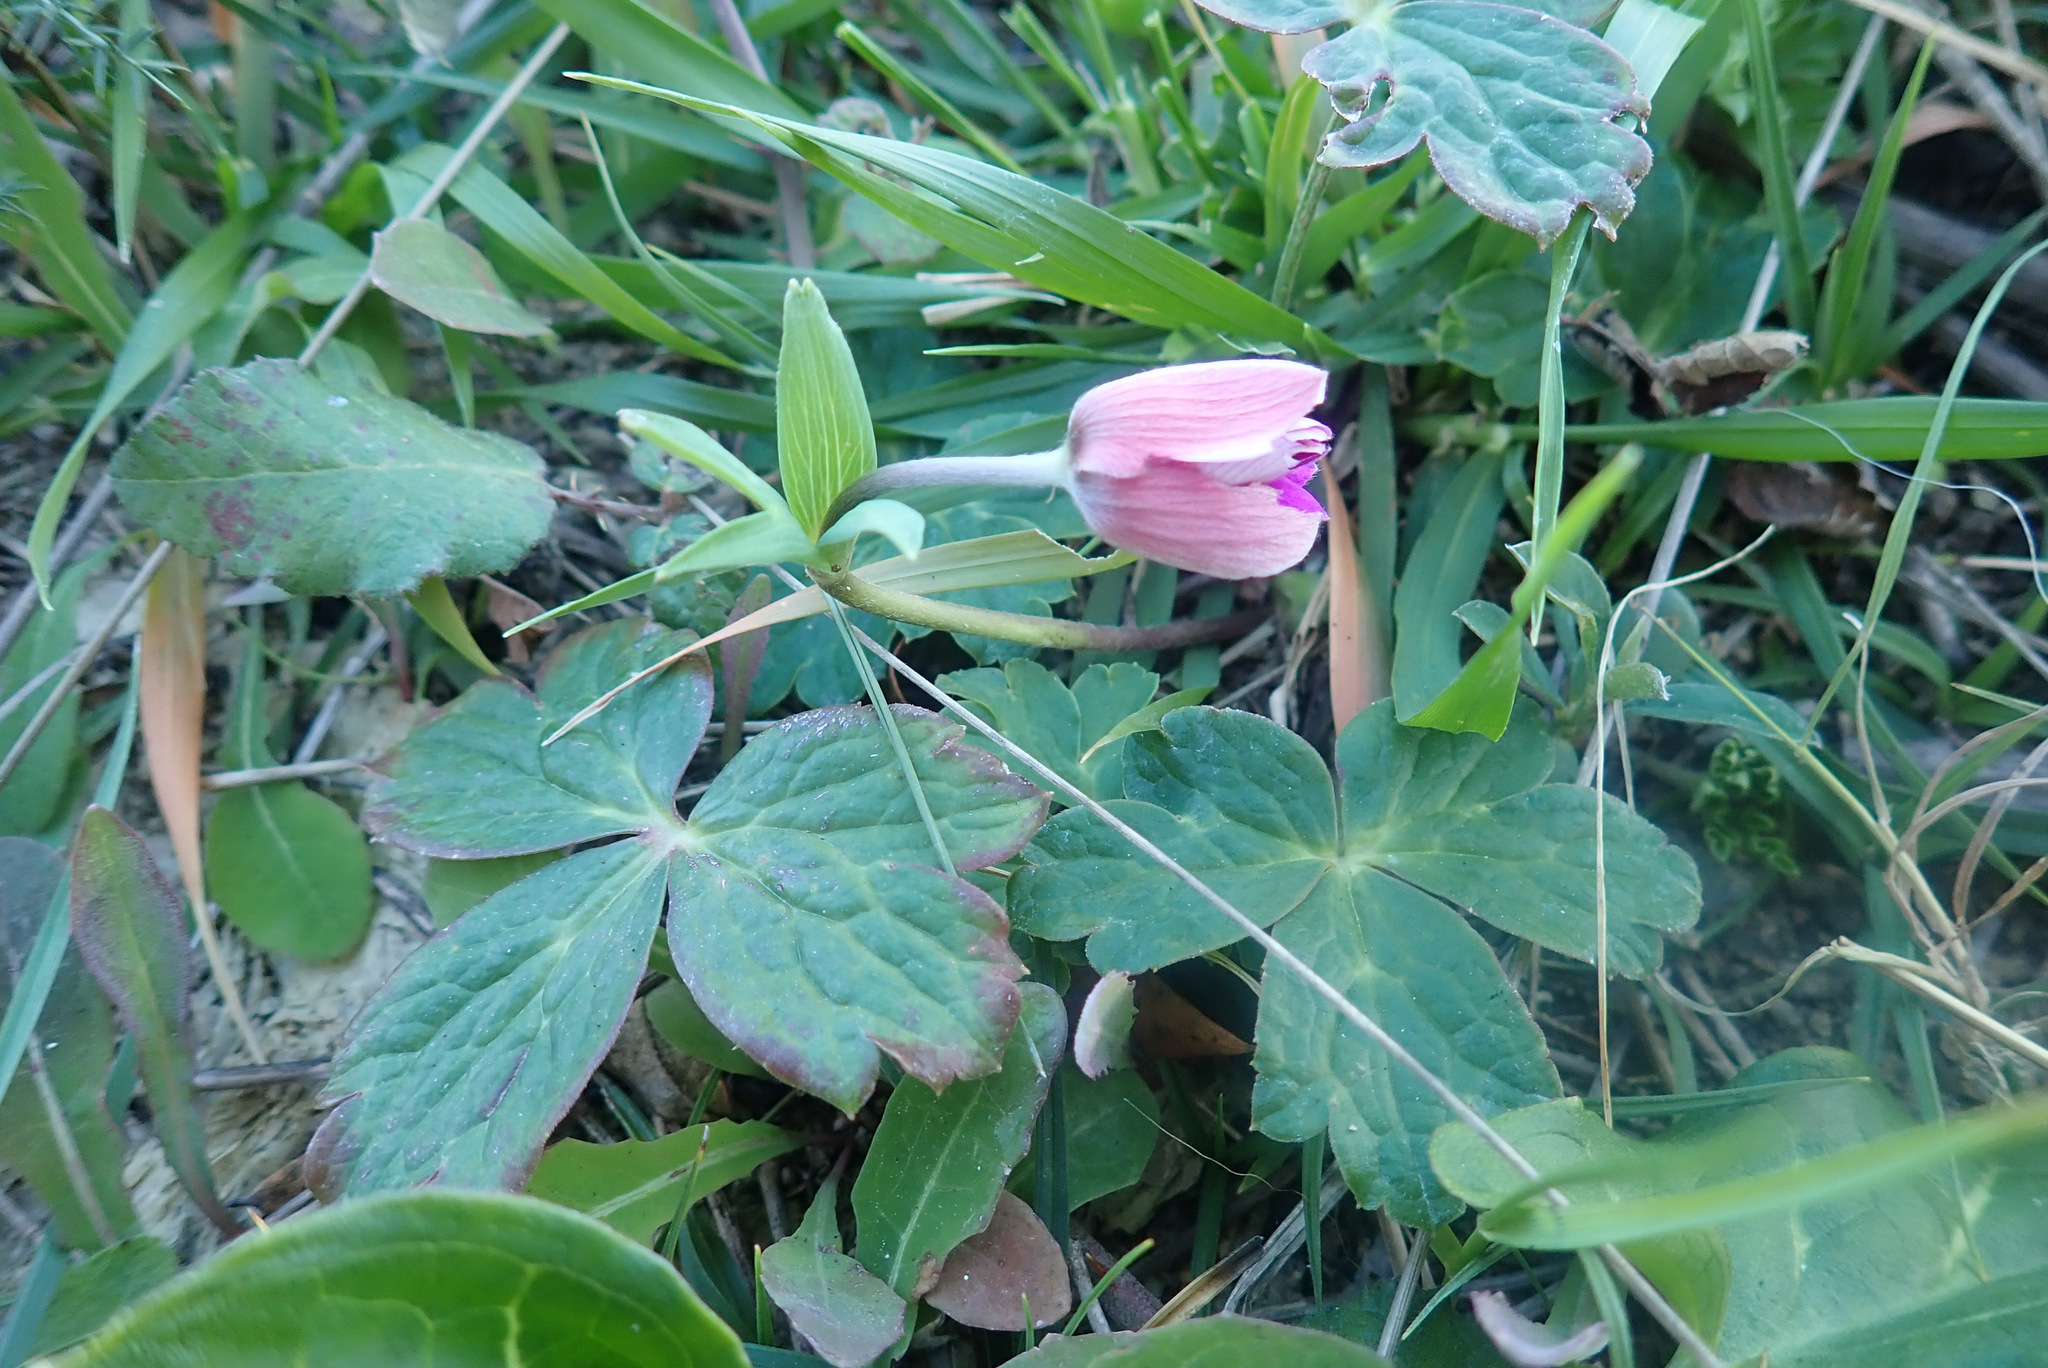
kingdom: Plantae
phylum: Tracheophyta
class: Magnoliopsida
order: Ranunculales
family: Ranunculaceae
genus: Anemone
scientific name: Anemone hortensis
